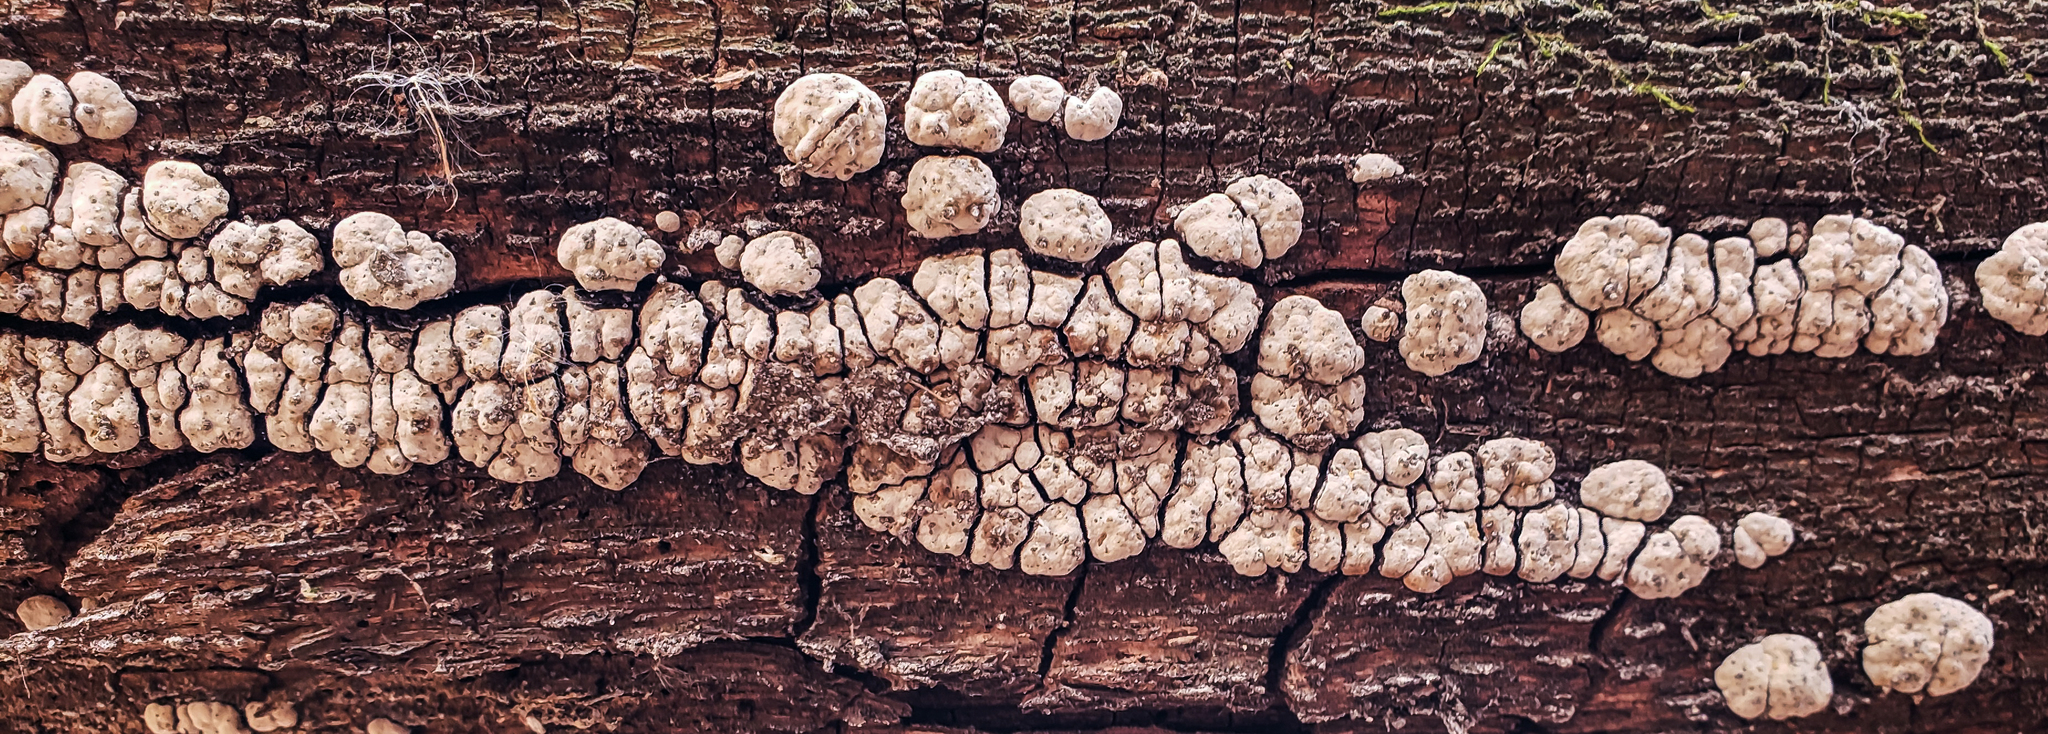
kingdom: Fungi
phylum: Basidiomycota
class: Agaricomycetes
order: Russulales
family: Stereaceae
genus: Xylobolus
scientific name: Xylobolus frustulatus
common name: Ceramic parchment
